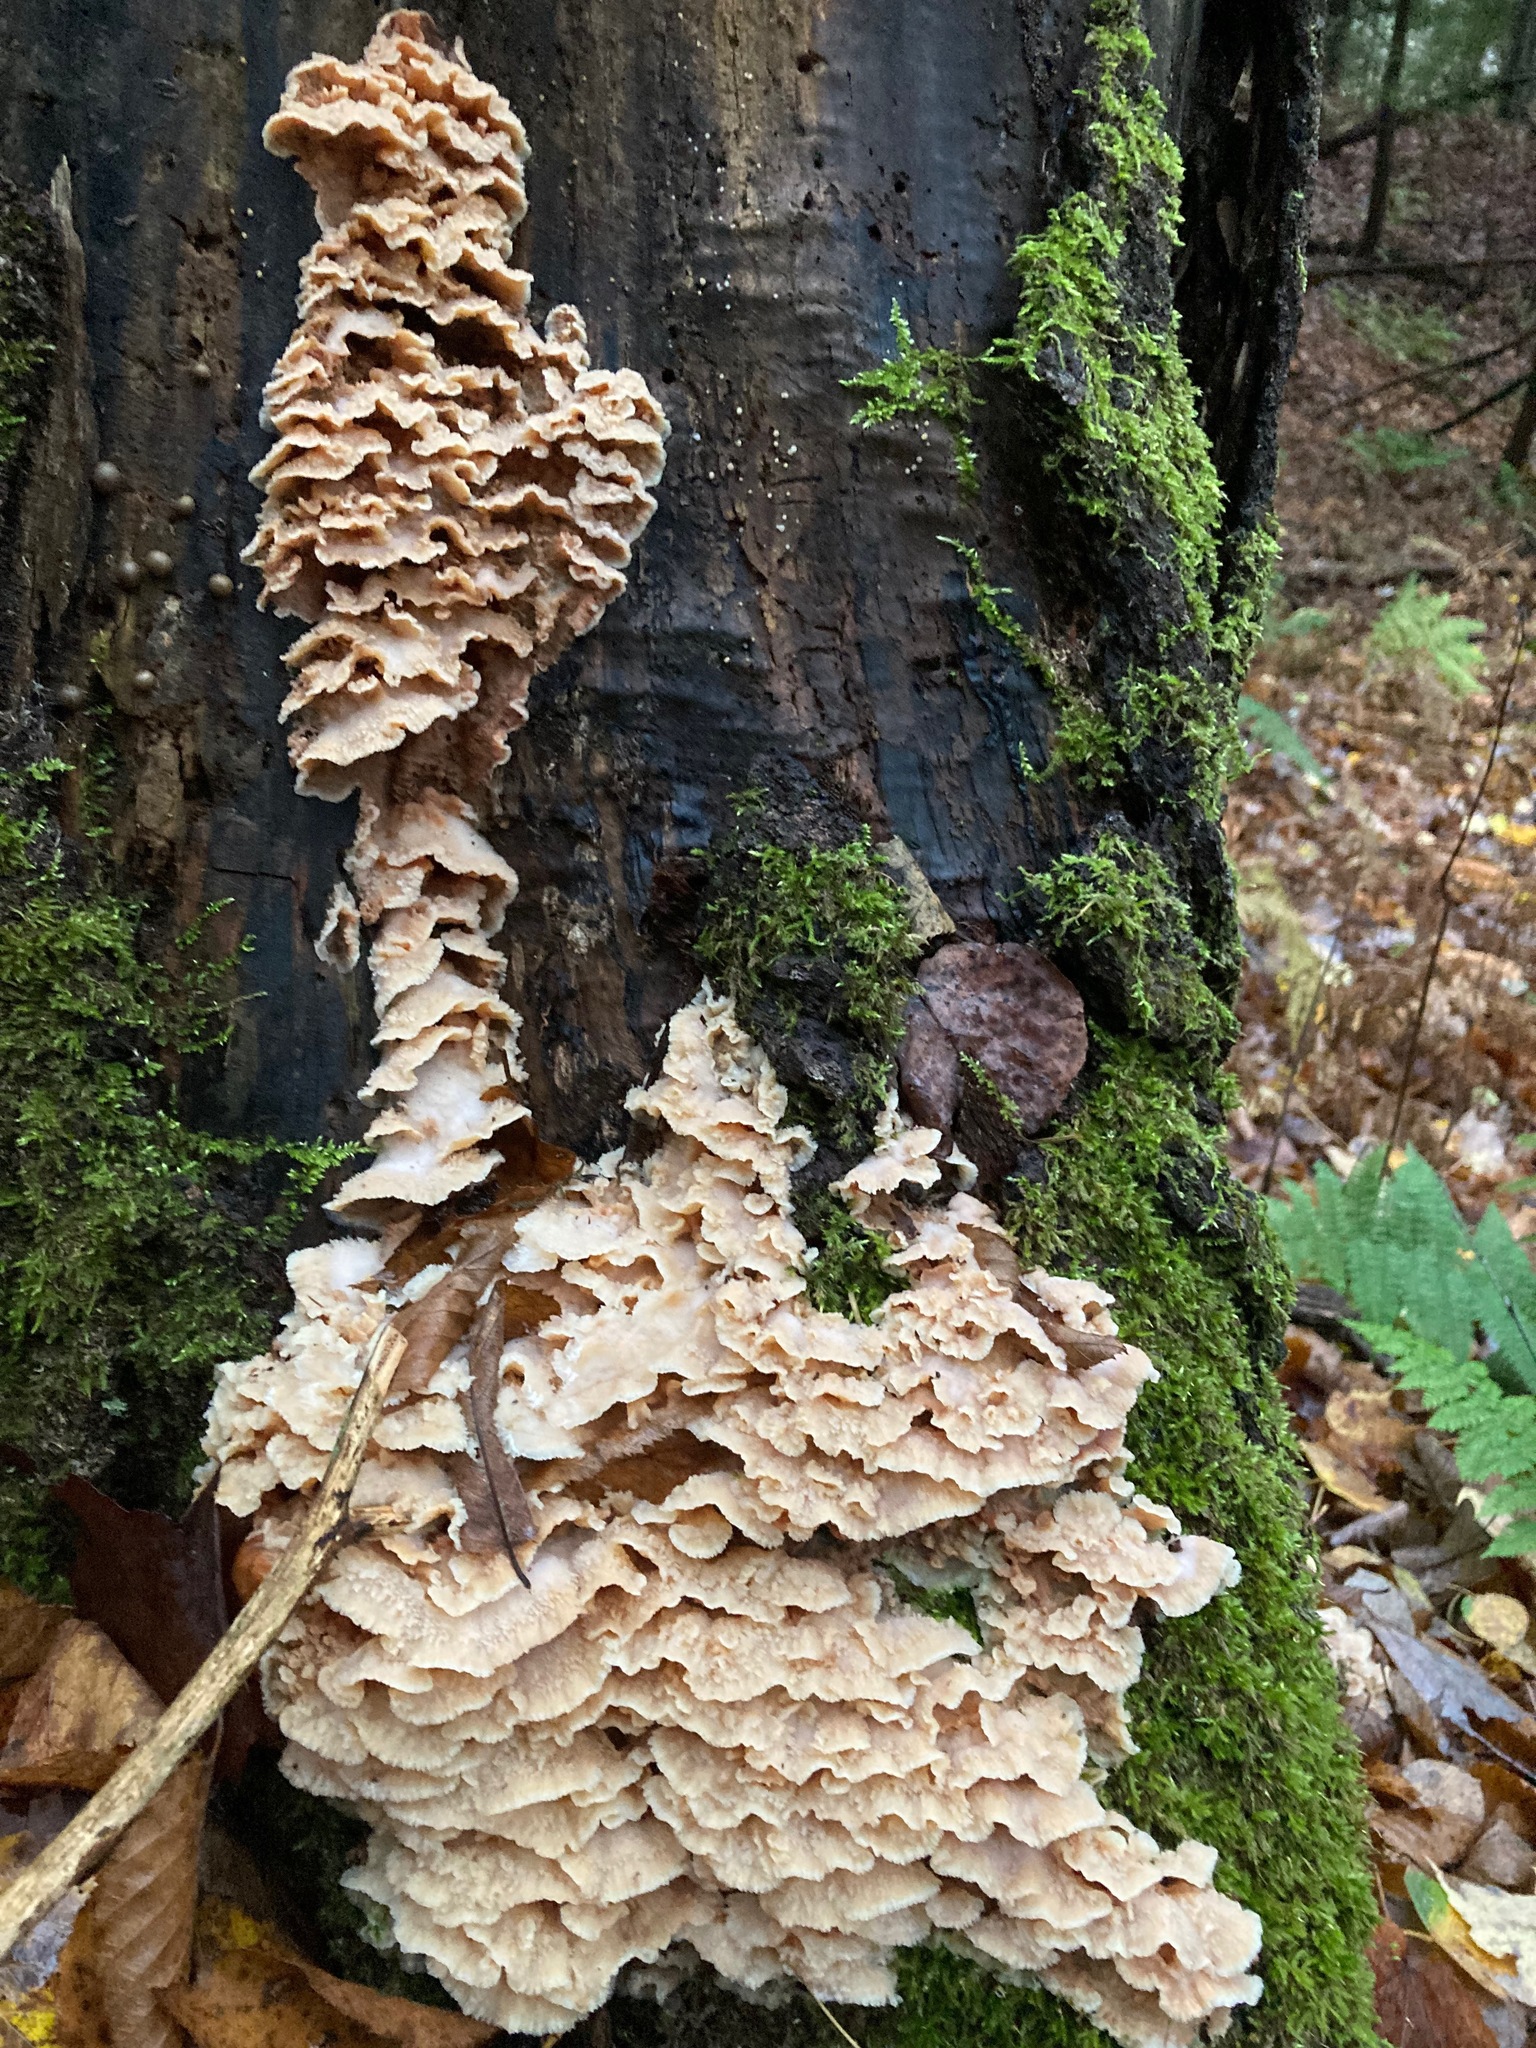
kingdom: Fungi
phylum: Basidiomycota
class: Agaricomycetes
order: Polyporales
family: Meruliaceae
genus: Phlebia
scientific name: Phlebia tremellosa
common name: Jelly rot
